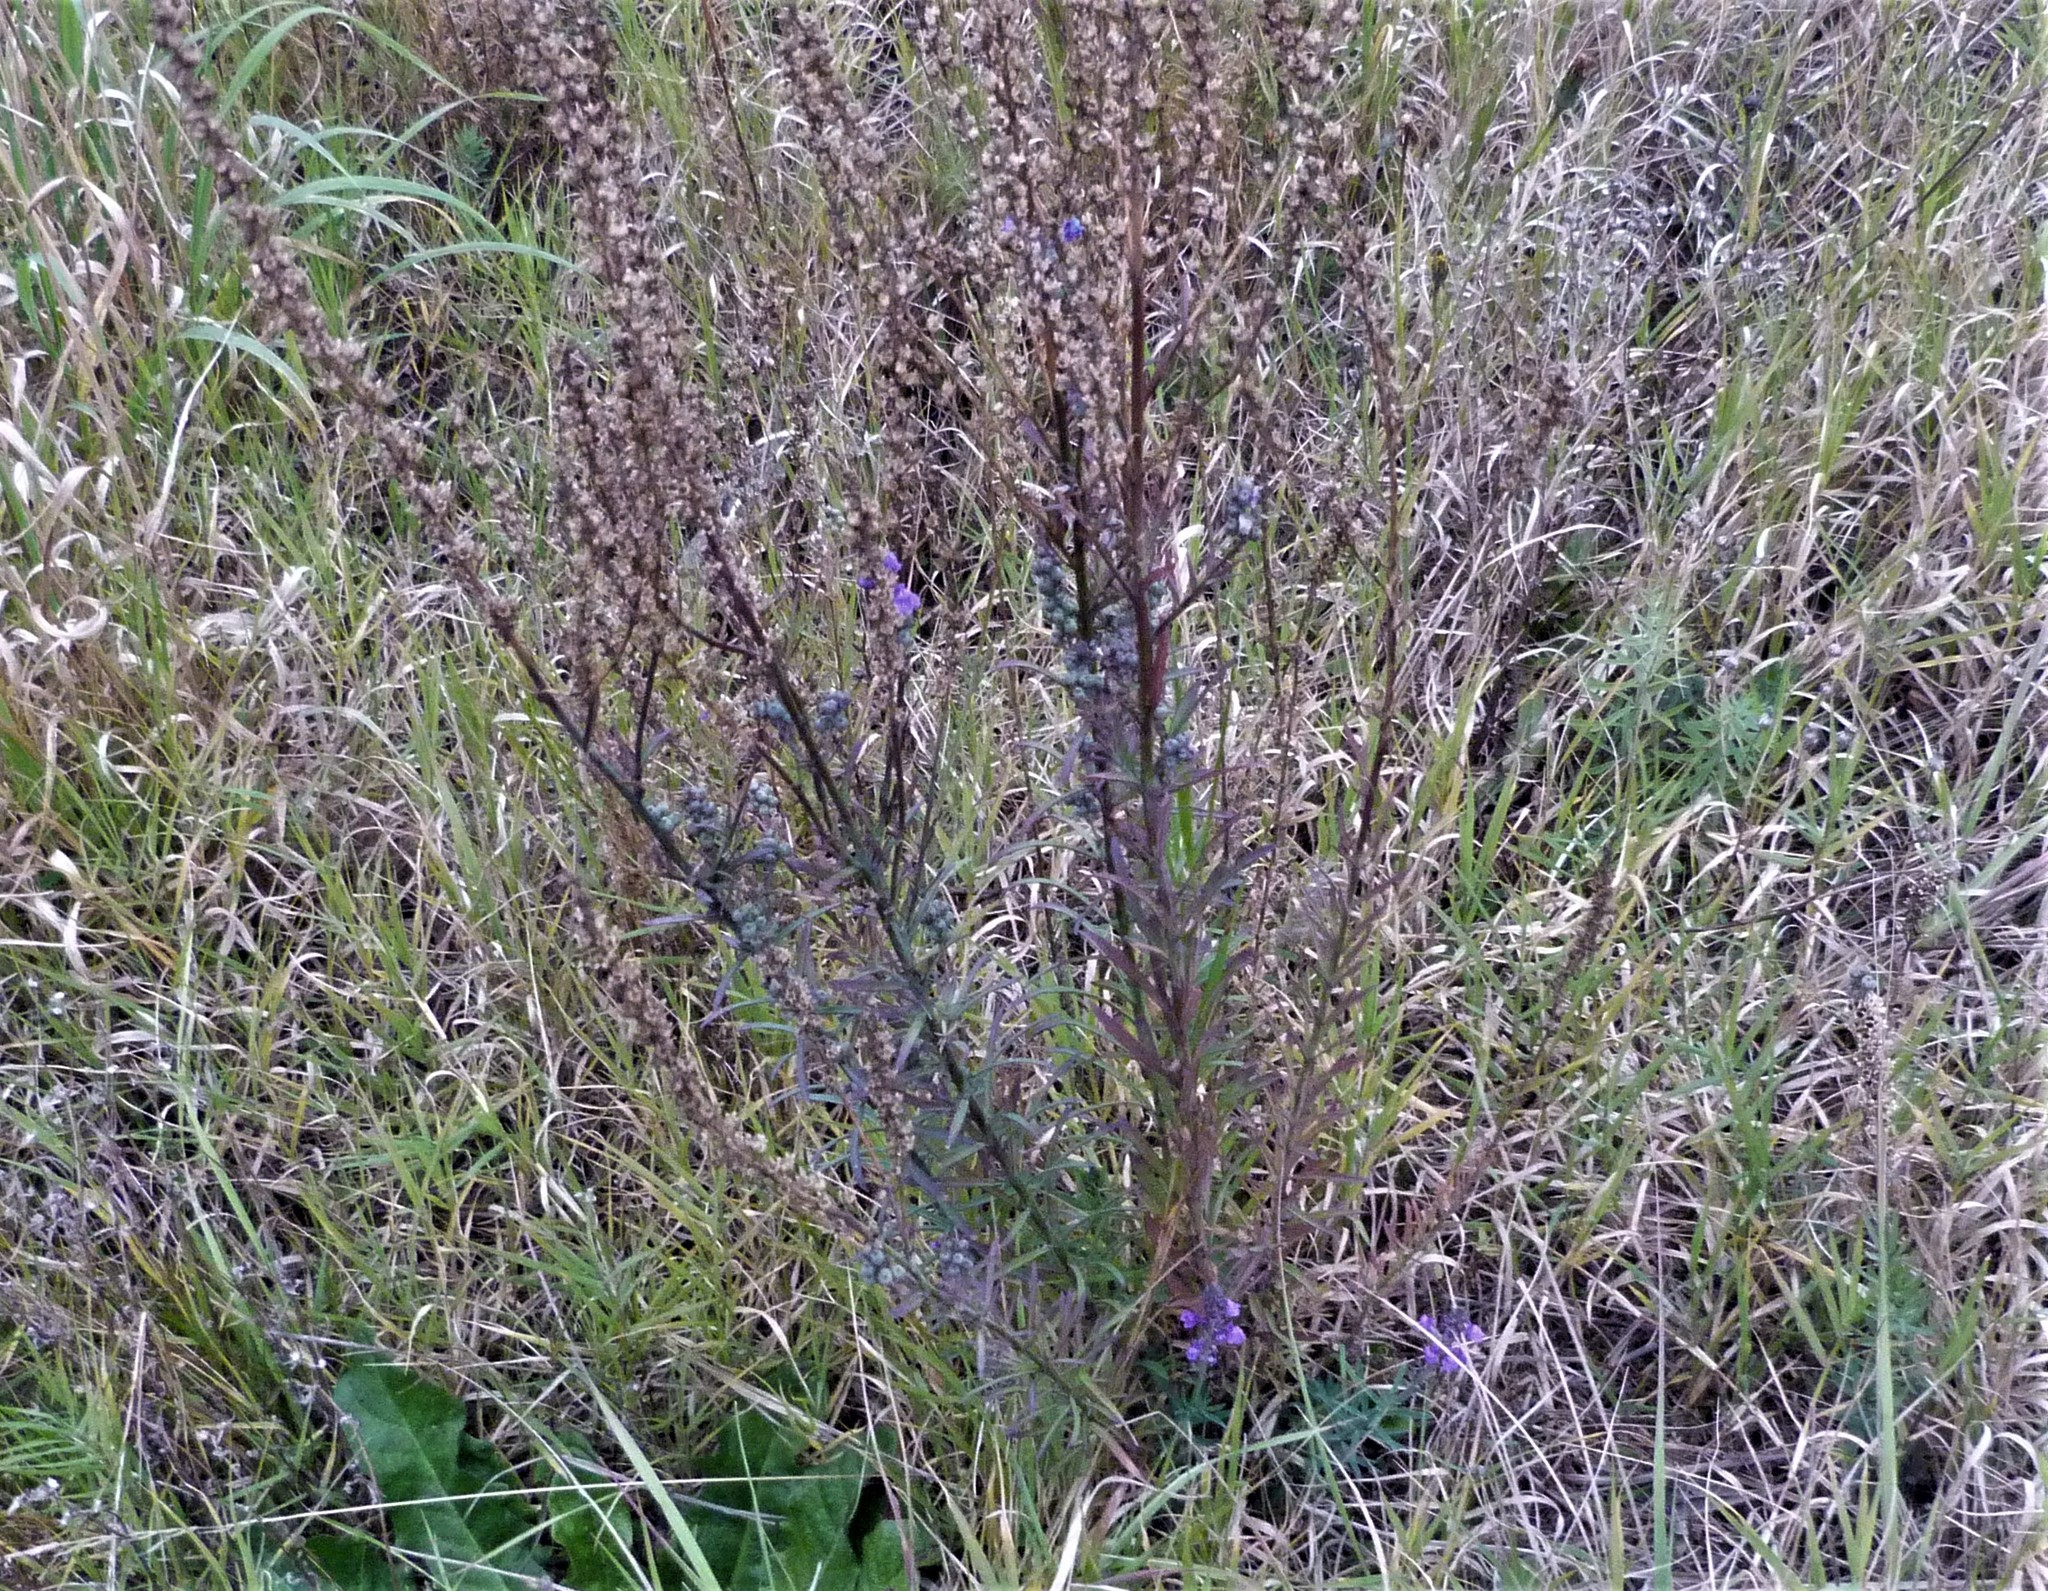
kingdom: Plantae
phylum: Tracheophyta
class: Magnoliopsida
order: Lamiales
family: Plantaginaceae
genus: Linaria
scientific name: Linaria purpurea
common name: Purple toadflax
